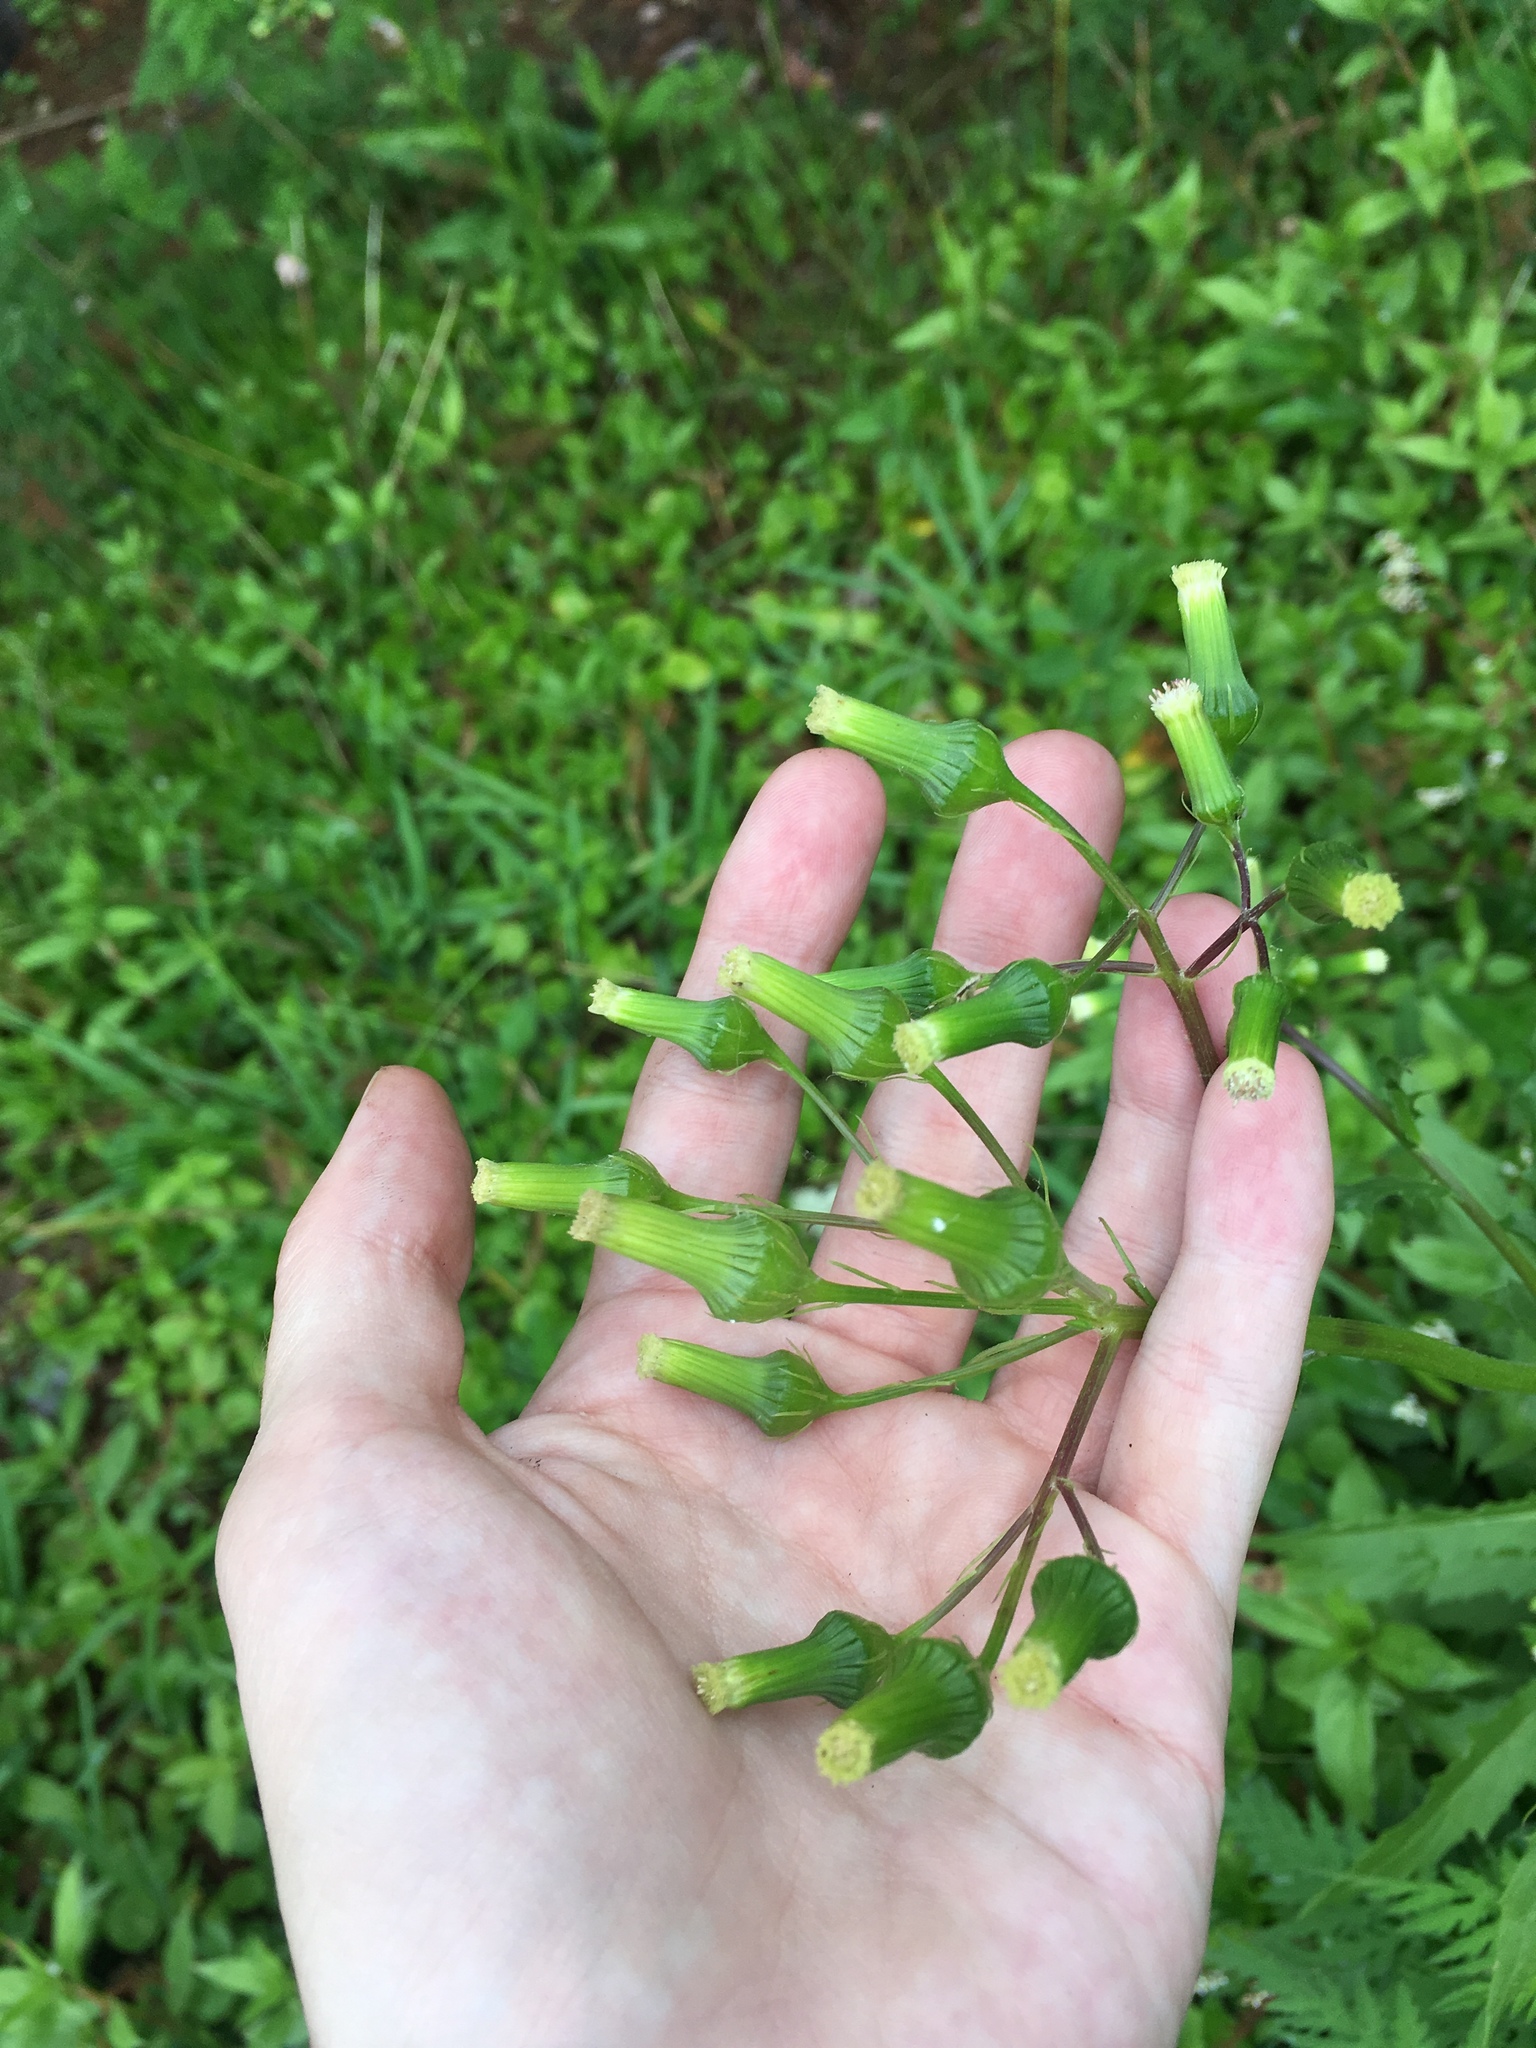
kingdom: Plantae
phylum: Tracheophyta
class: Magnoliopsida
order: Asterales
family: Asteraceae
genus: Erechtites
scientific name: Erechtites hieraciifolius
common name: American burnweed
